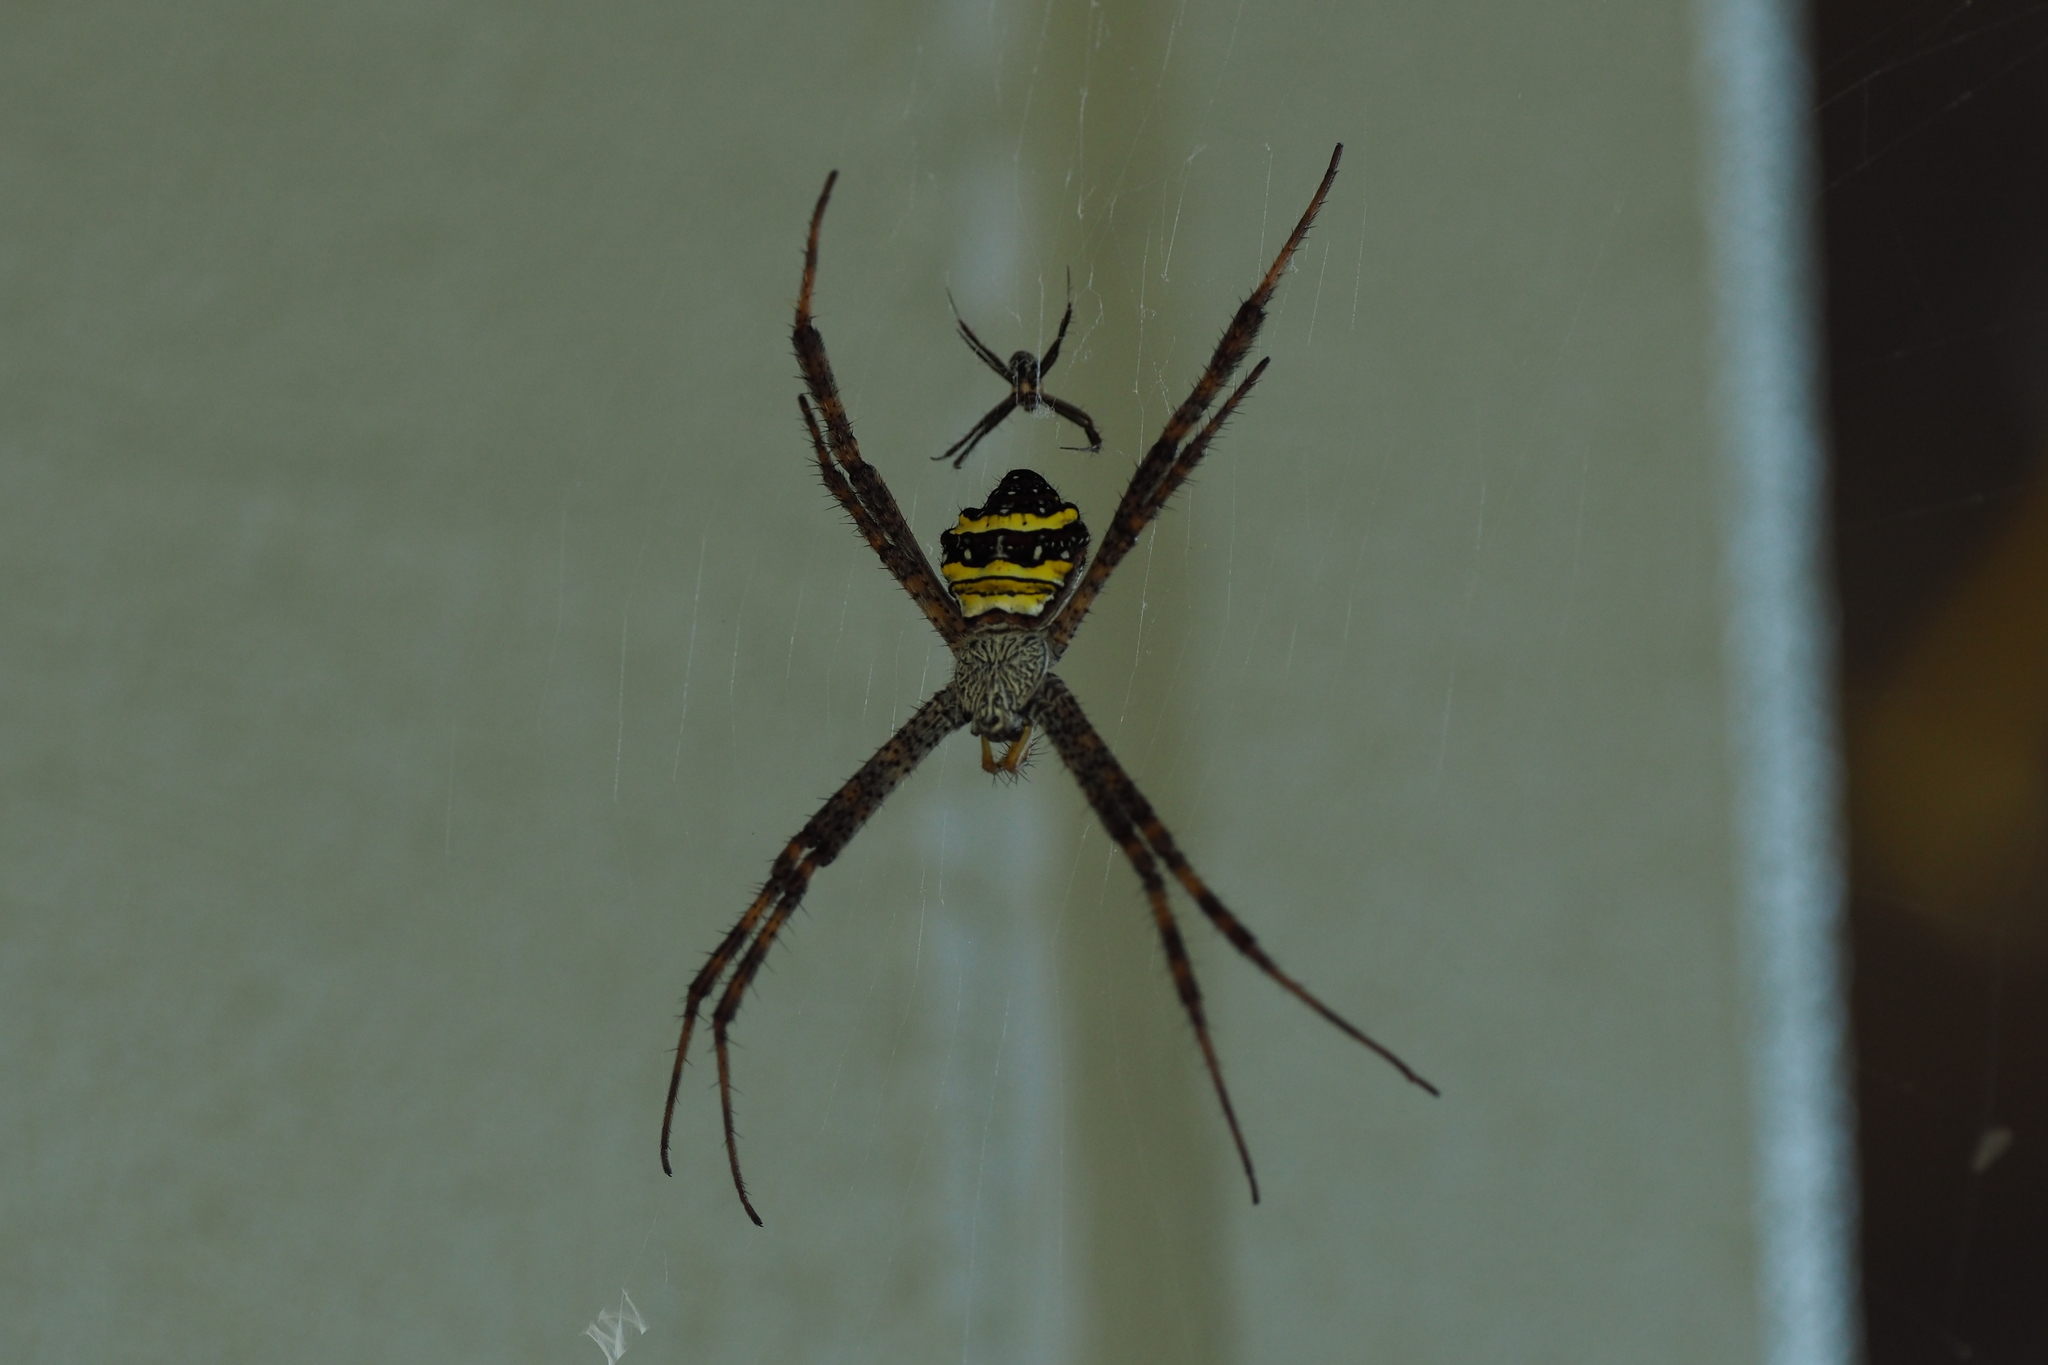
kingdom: Animalia
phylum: Arthropoda
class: Arachnida
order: Araneae
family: Araneidae
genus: Argiope
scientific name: Argiope aetheroides
